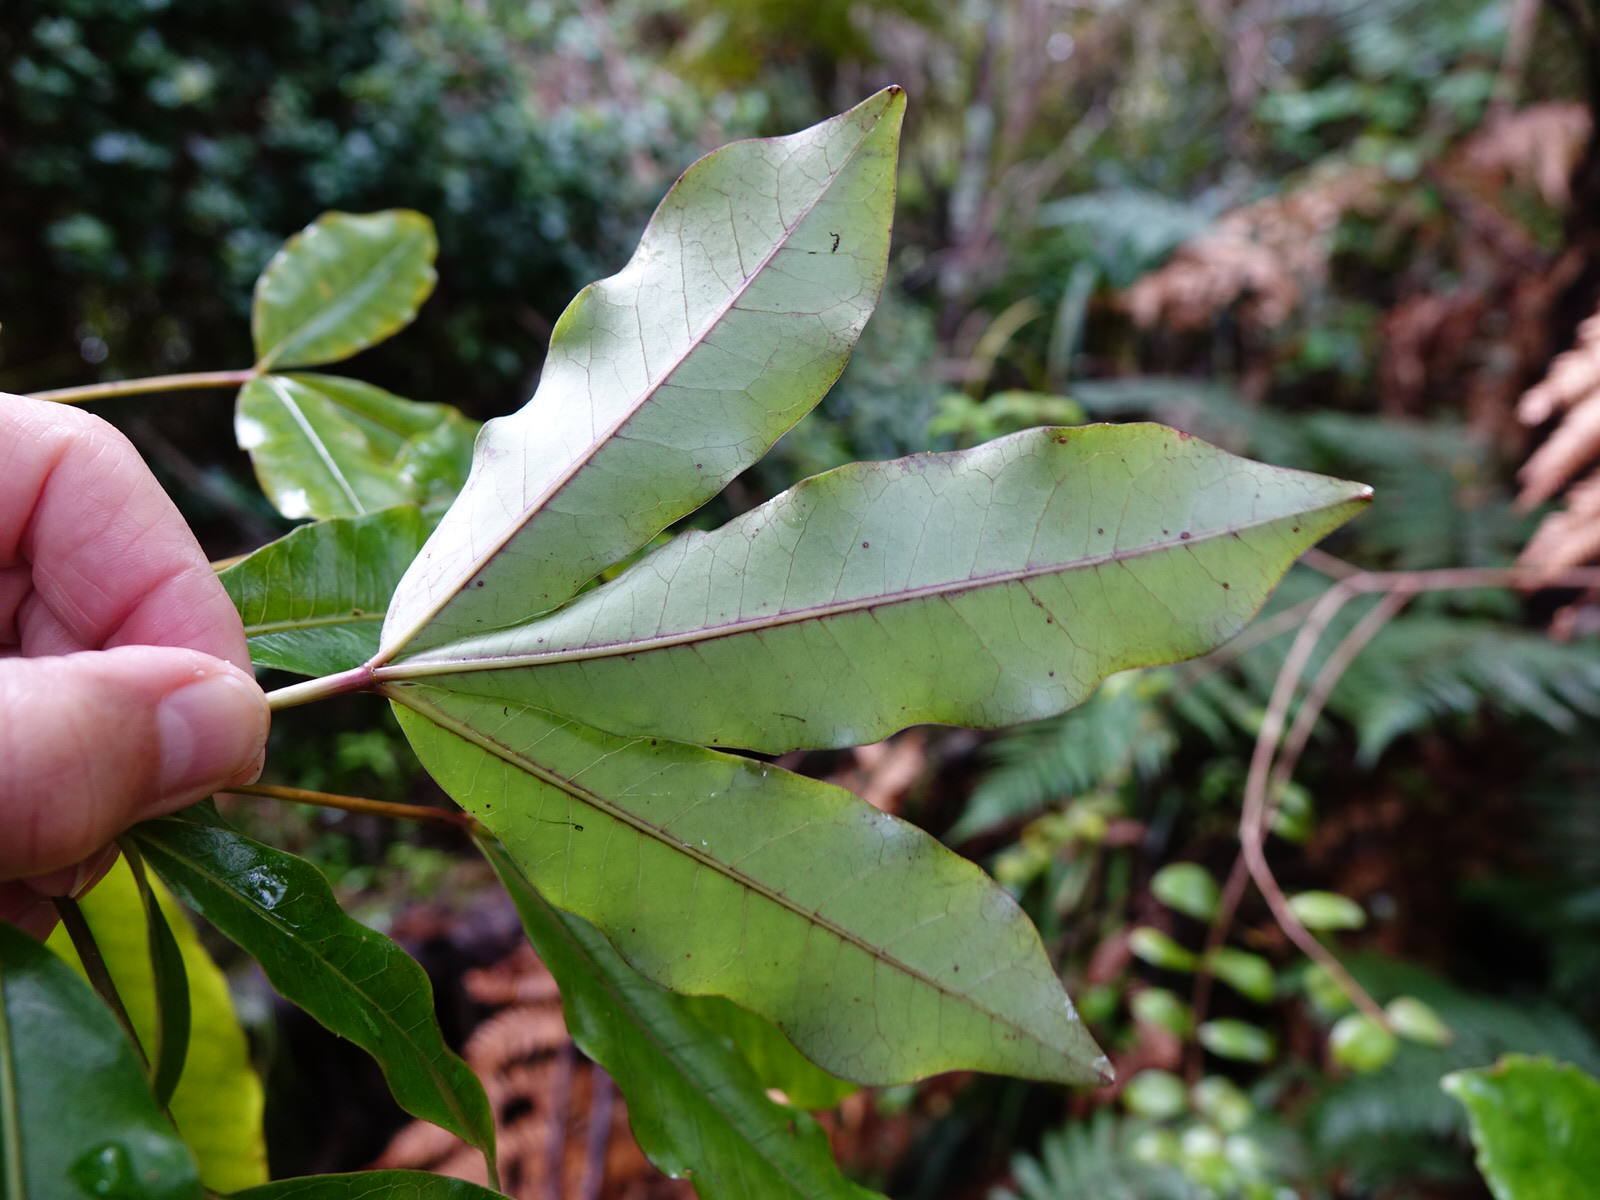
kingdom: Plantae
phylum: Tracheophyta
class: Magnoliopsida
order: Apiales
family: Araliaceae
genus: Raukaua
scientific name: Raukaua edgerleyi
